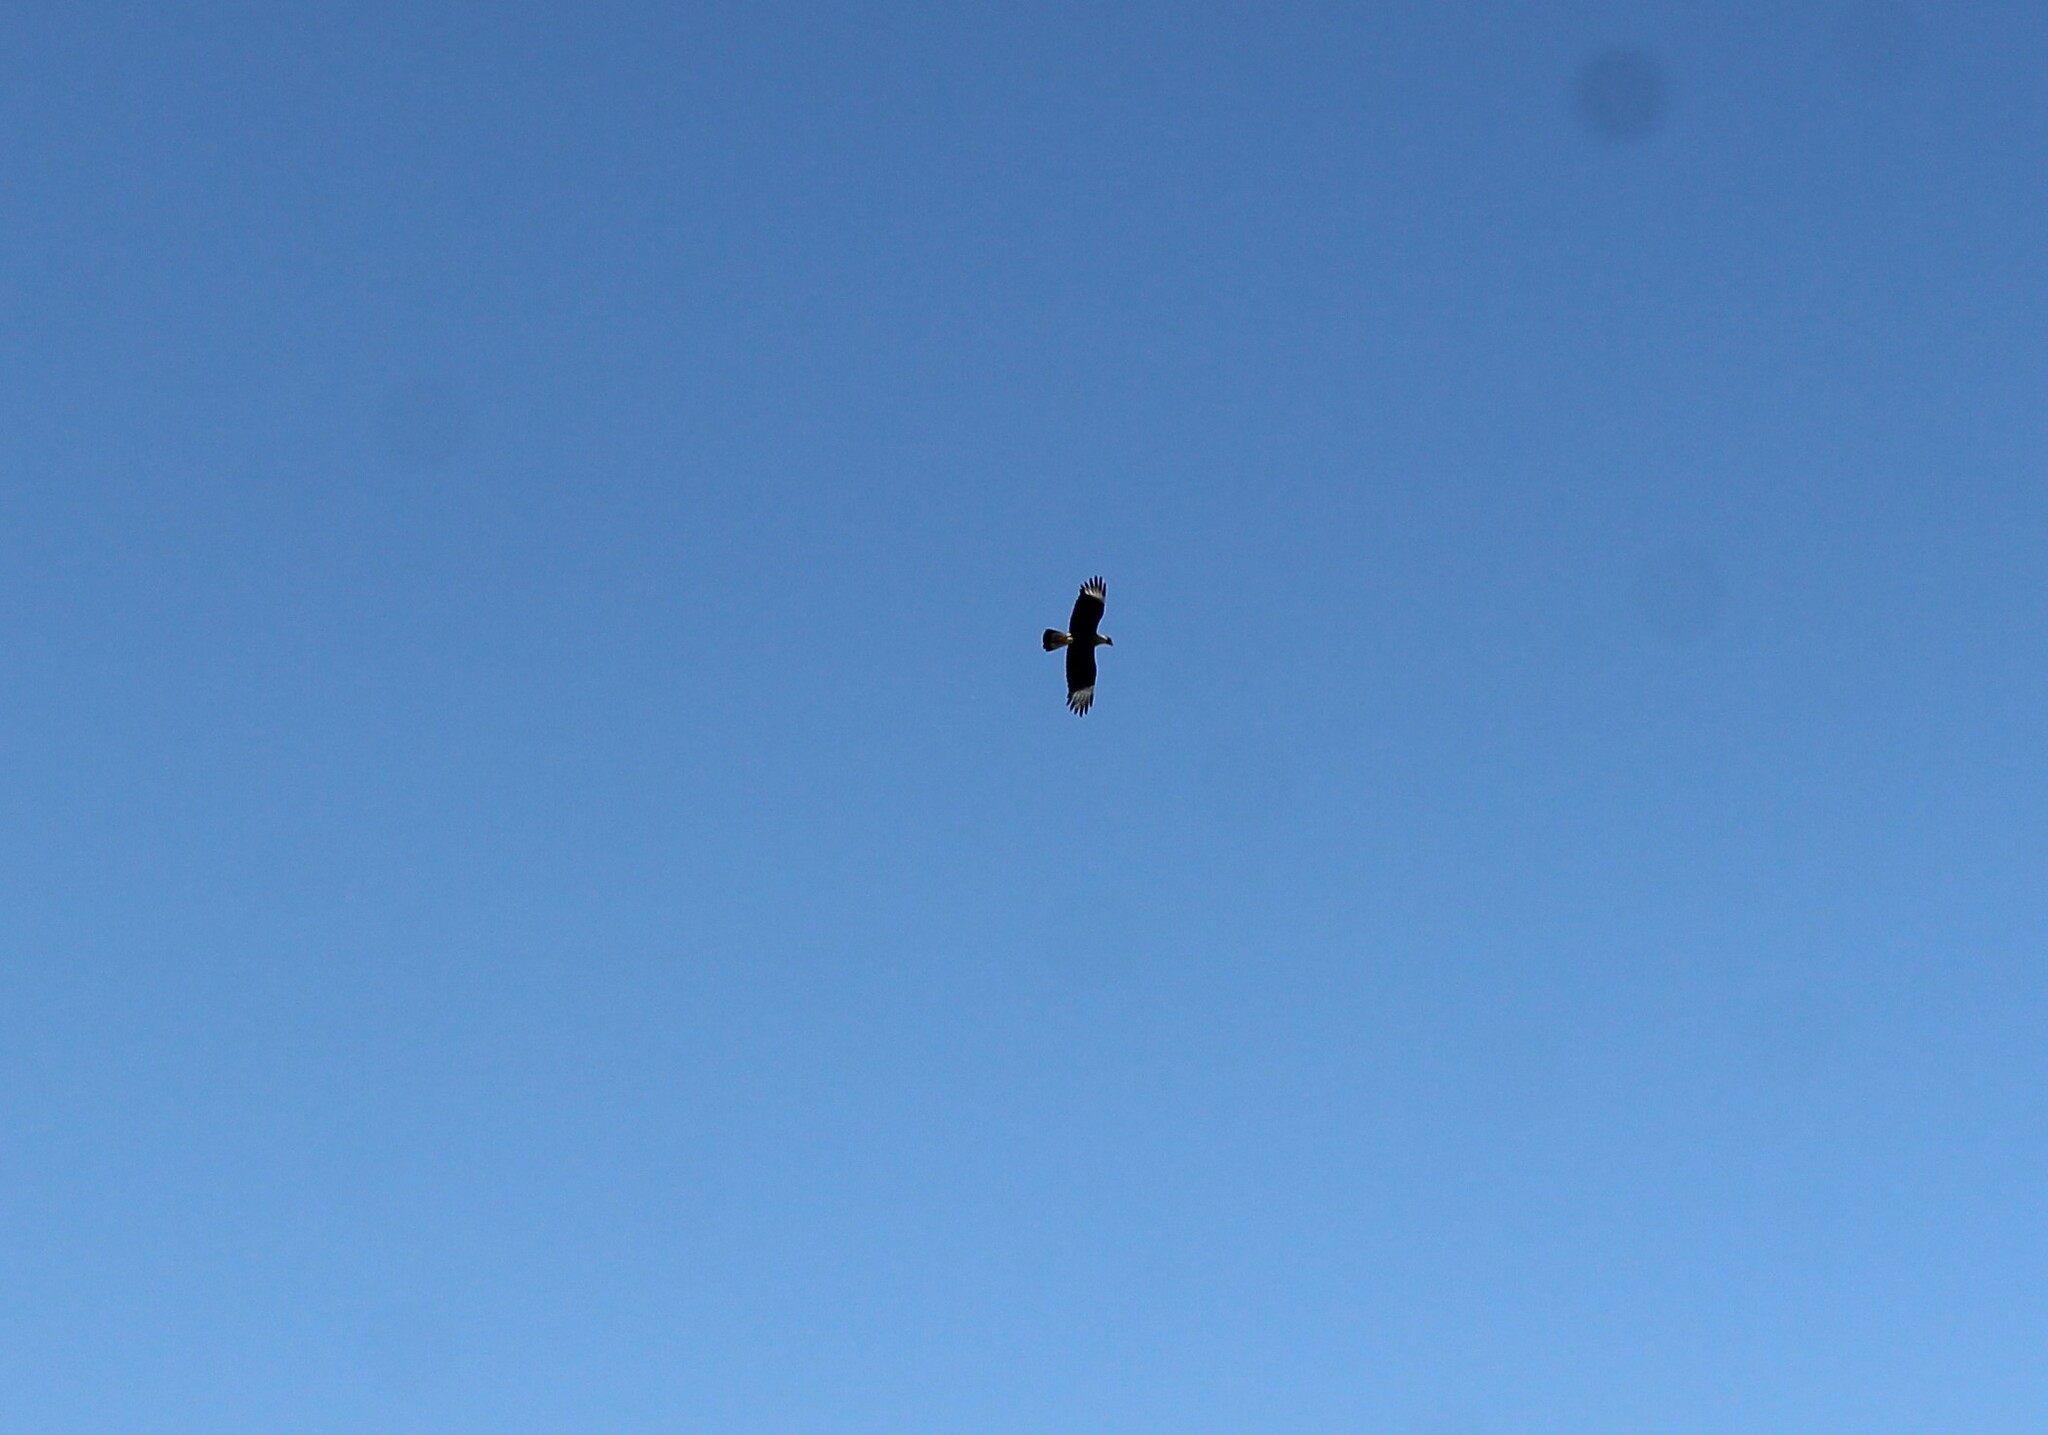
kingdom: Animalia
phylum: Chordata
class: Aves
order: Falconiformes
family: Falconidae
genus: Caracara
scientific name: Caracara plancus
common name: Southern caracara
